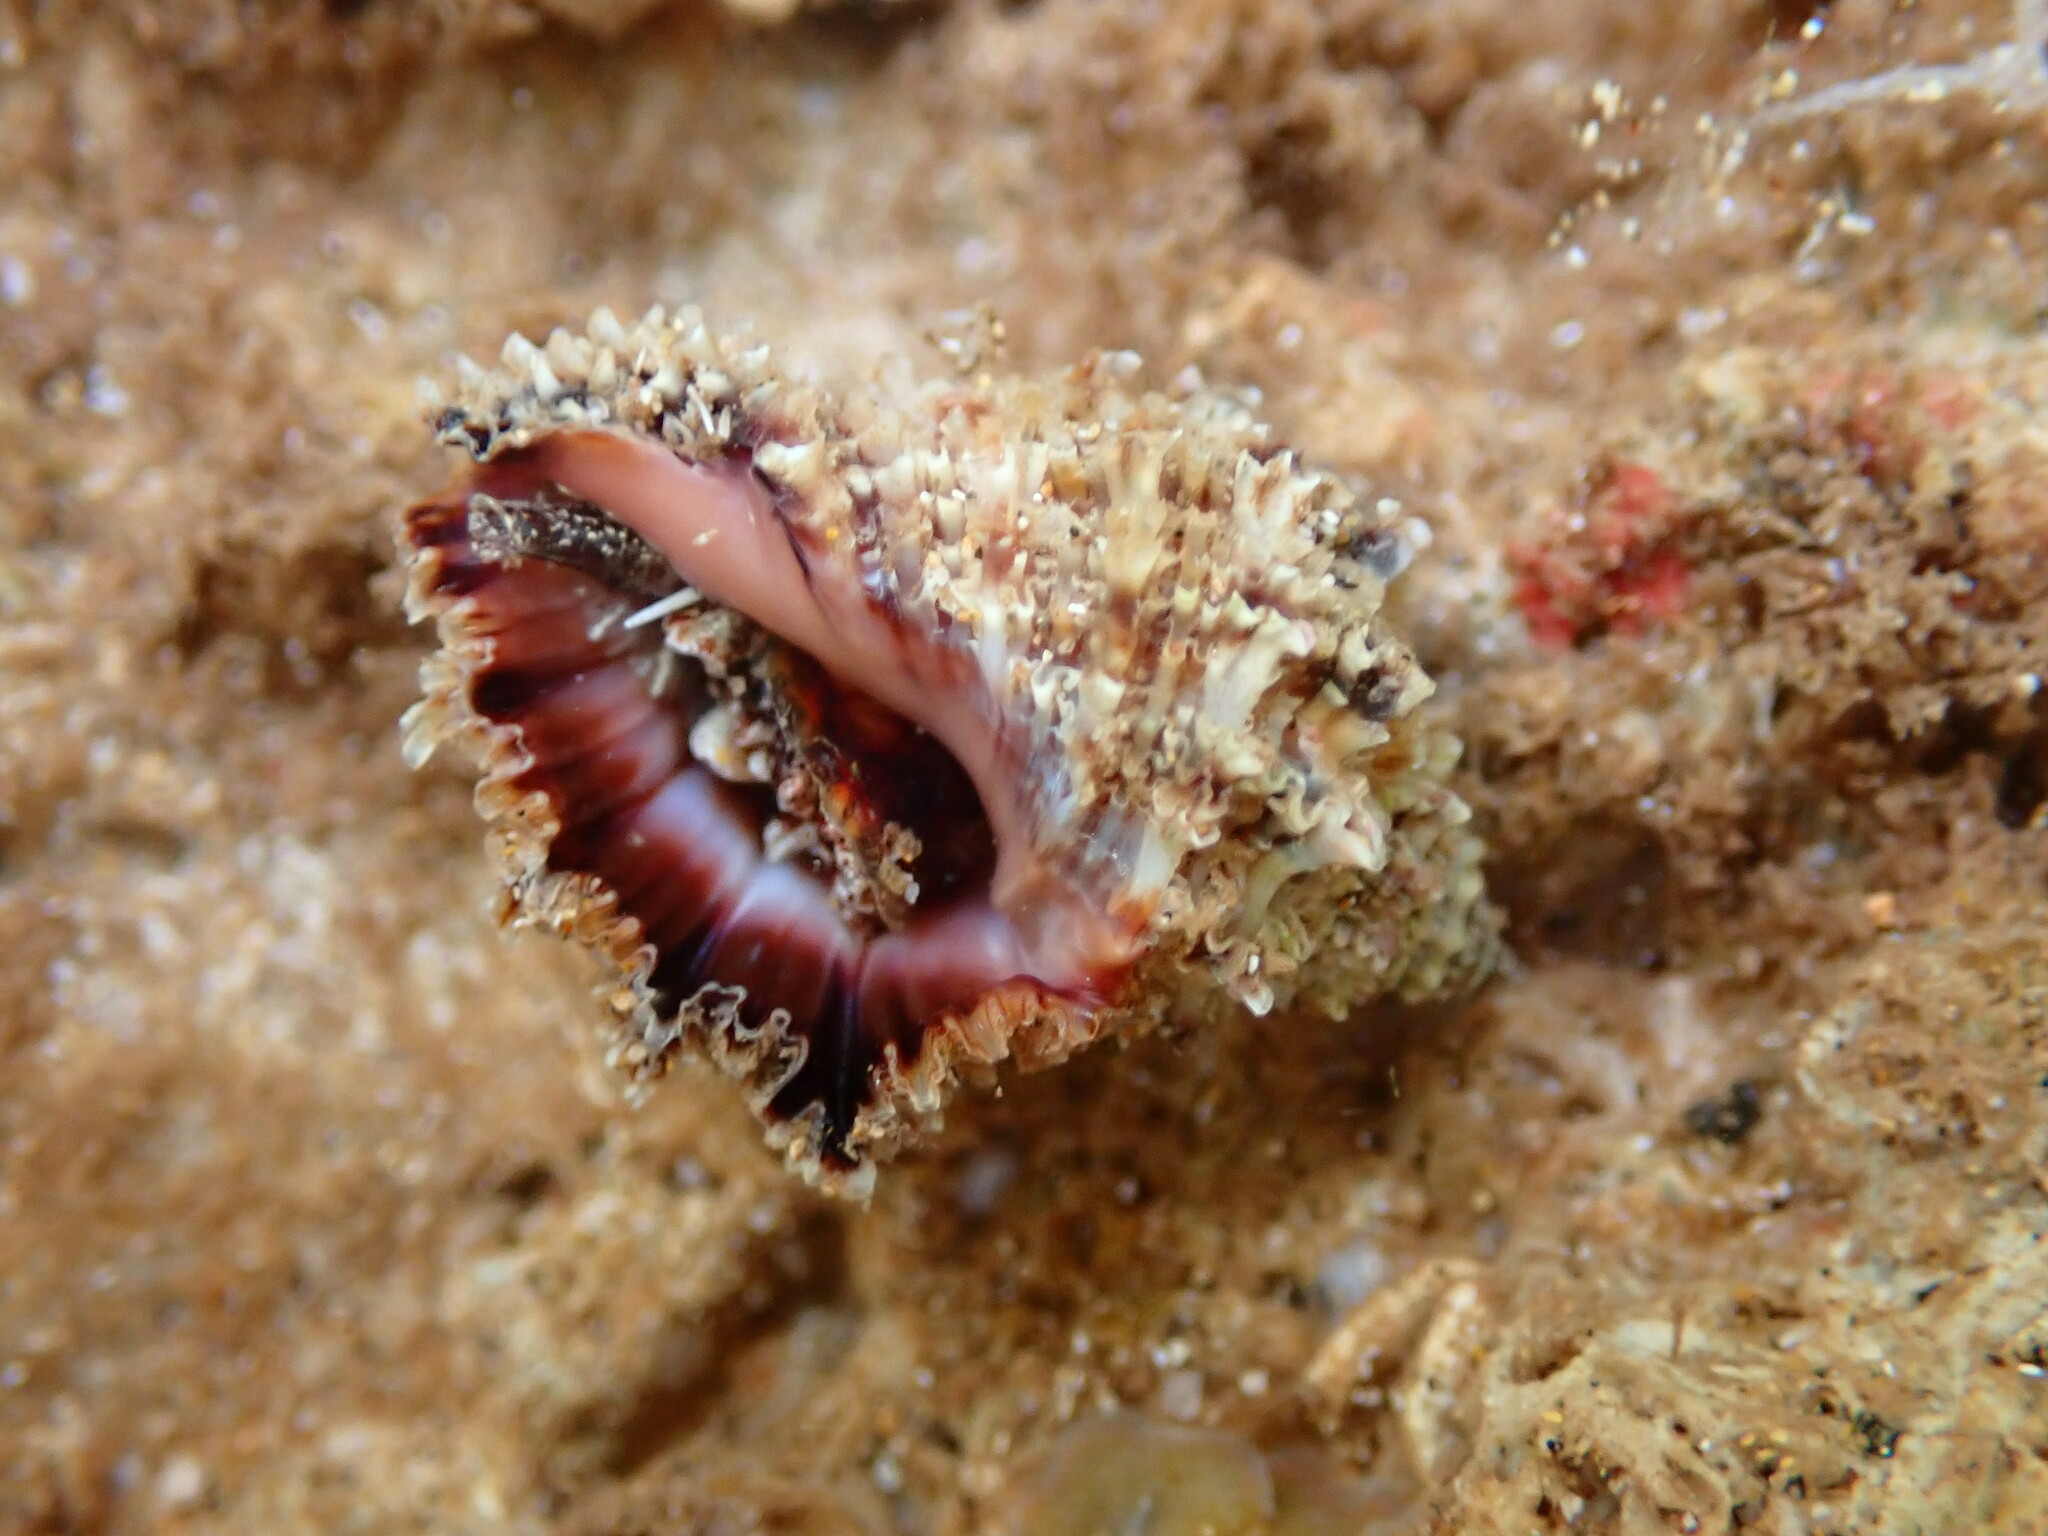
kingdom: Animalia
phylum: Mollusca
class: Gastropoda
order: Neogastropoda
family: Muricidae
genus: Semiricinula
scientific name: Semiricinula turbinoides
